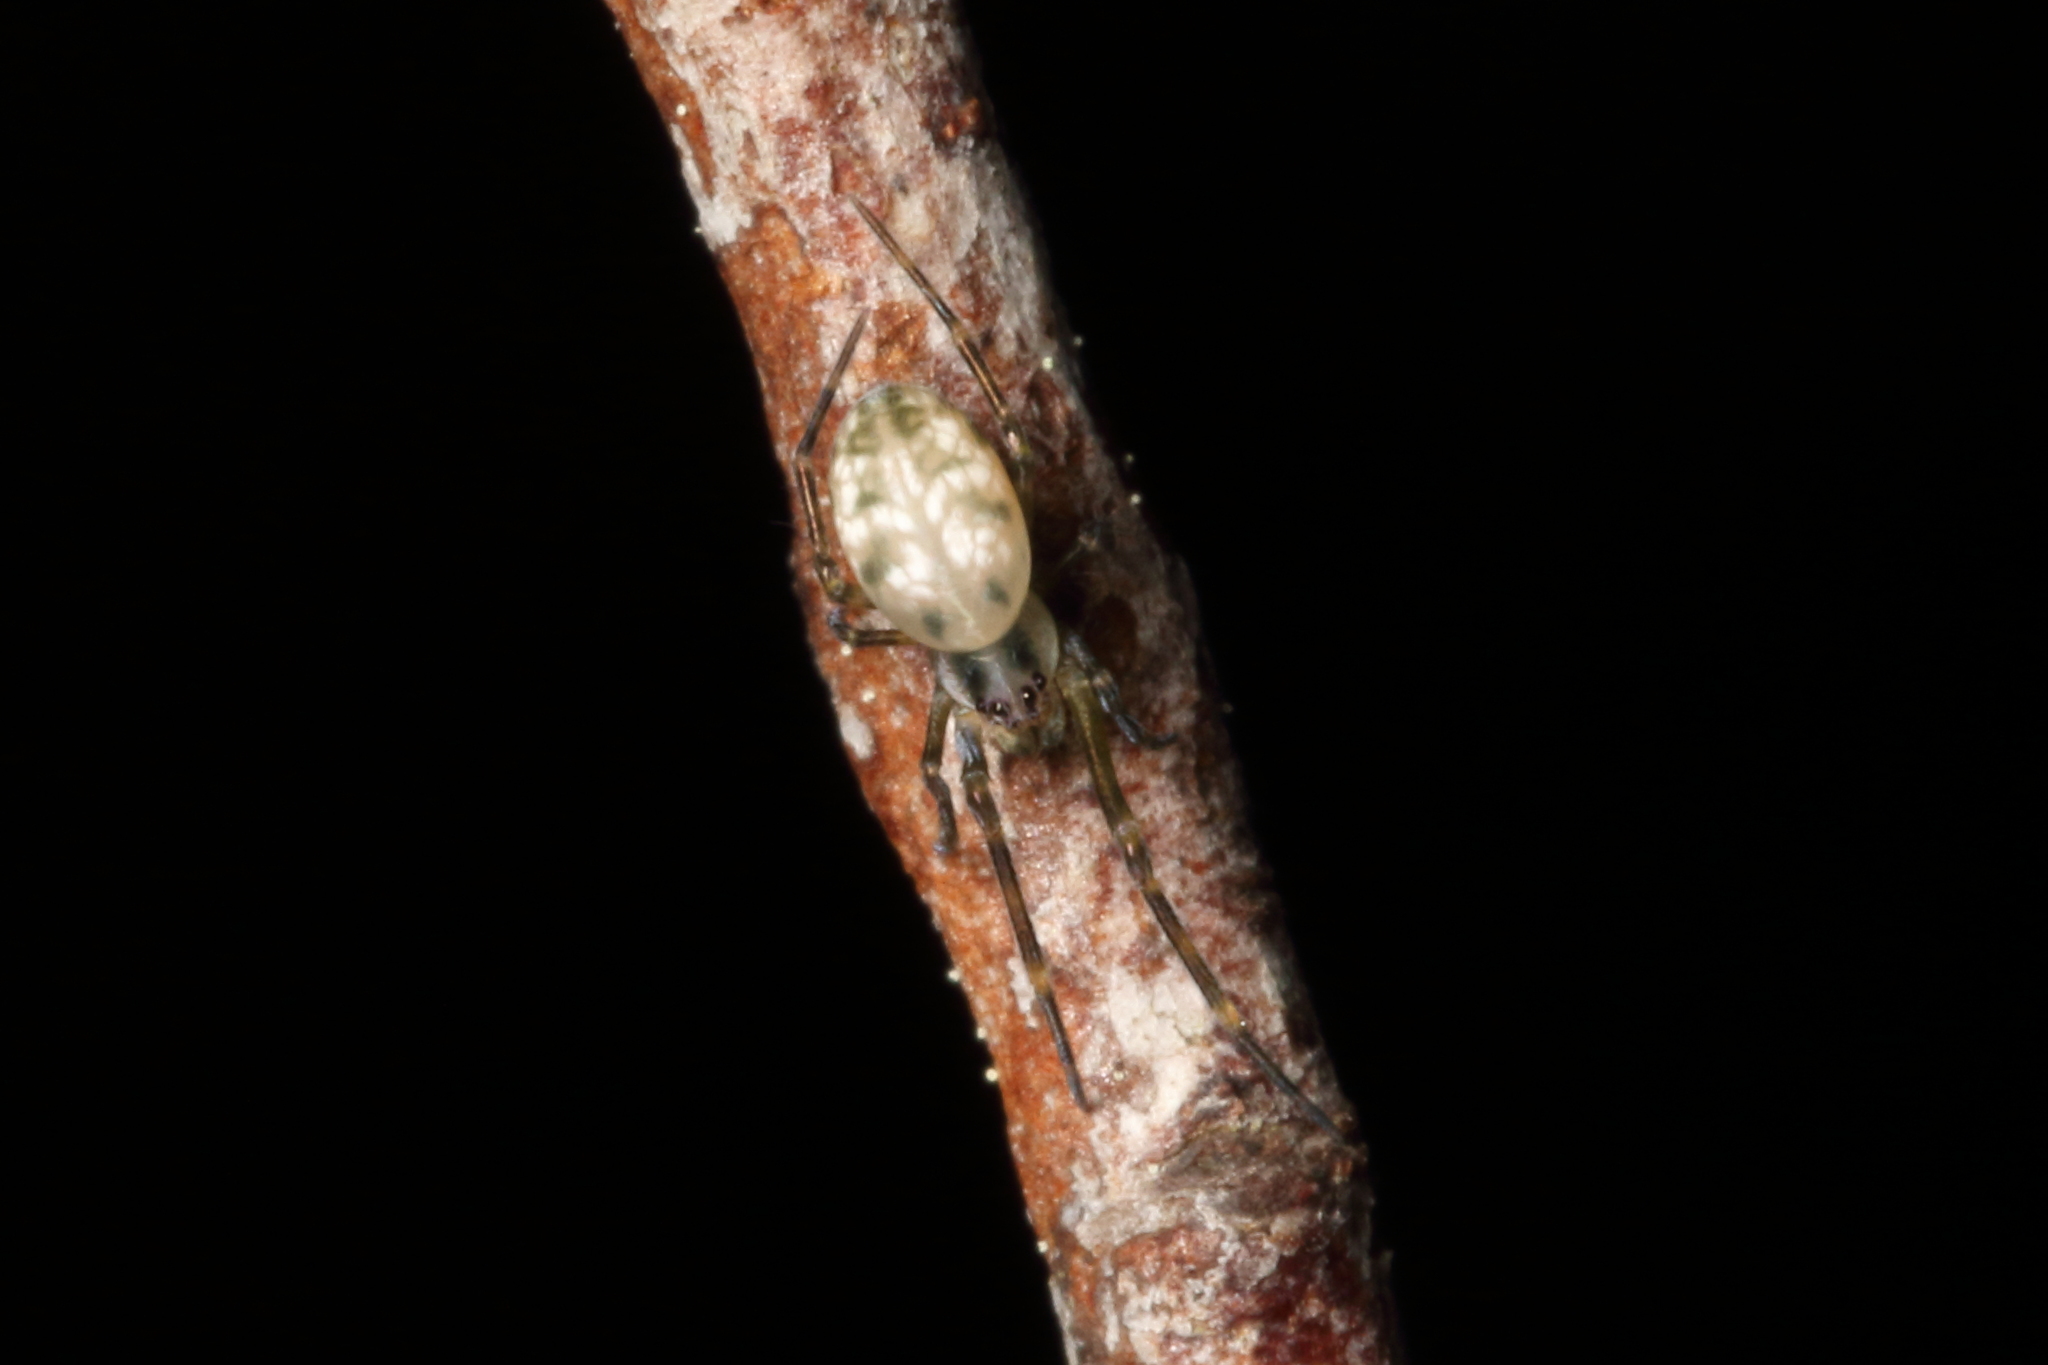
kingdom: Animalia
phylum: Arthropoda
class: Arachnida
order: Araneae
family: Uloboridae
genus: Waitkera
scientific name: Waitkera waitakerensis
